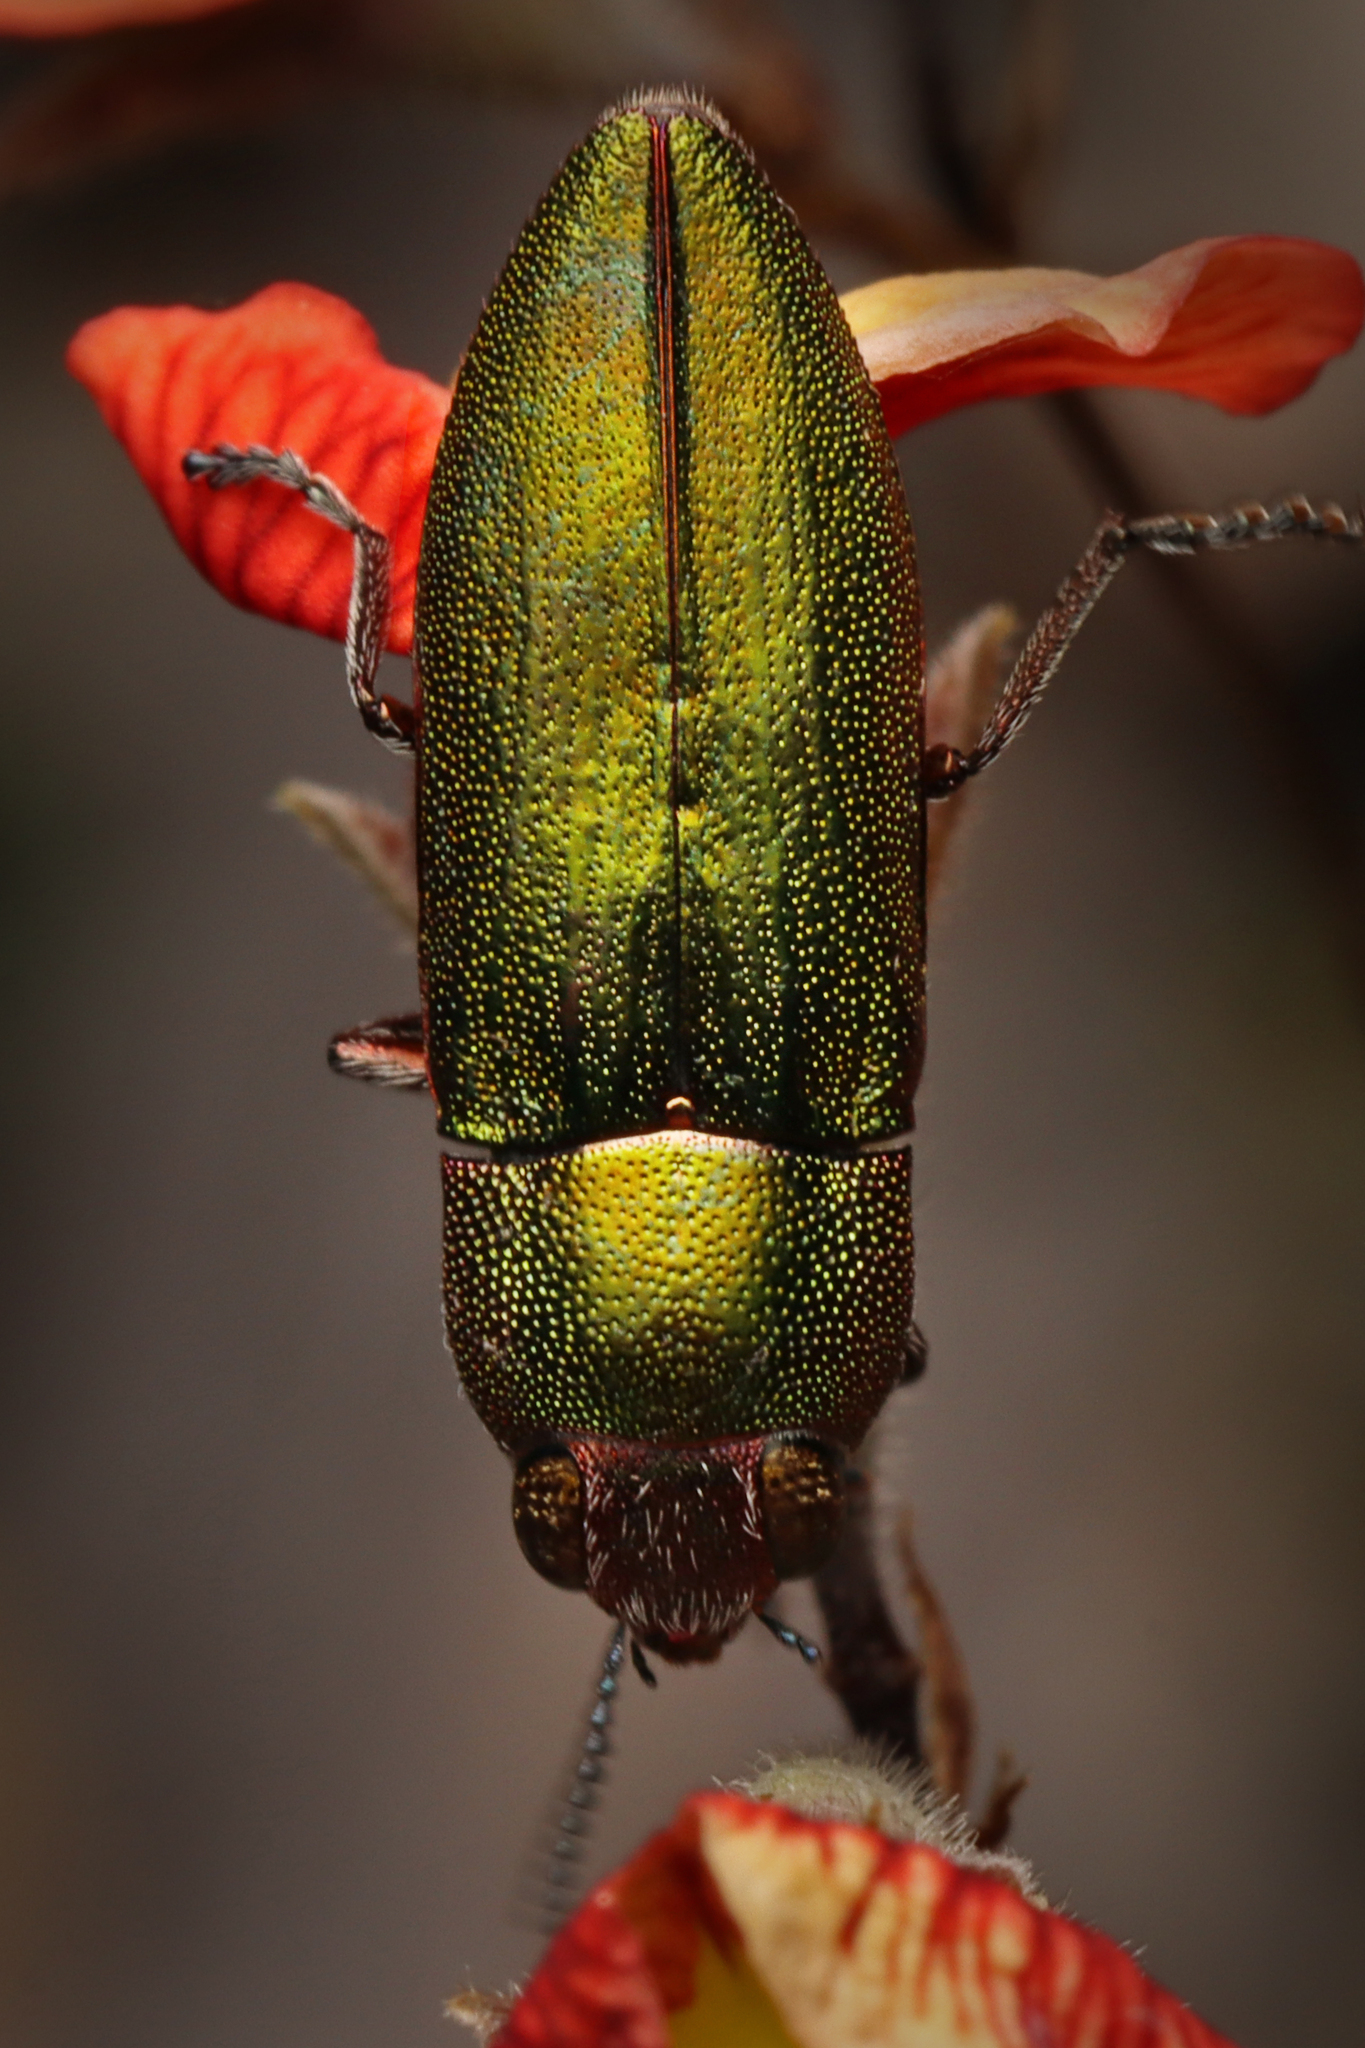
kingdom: Animalia
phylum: Arthropoda
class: Insecta
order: Coleoptera
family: Buprestidae
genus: Melobasis
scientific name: Melobasis propinqua
